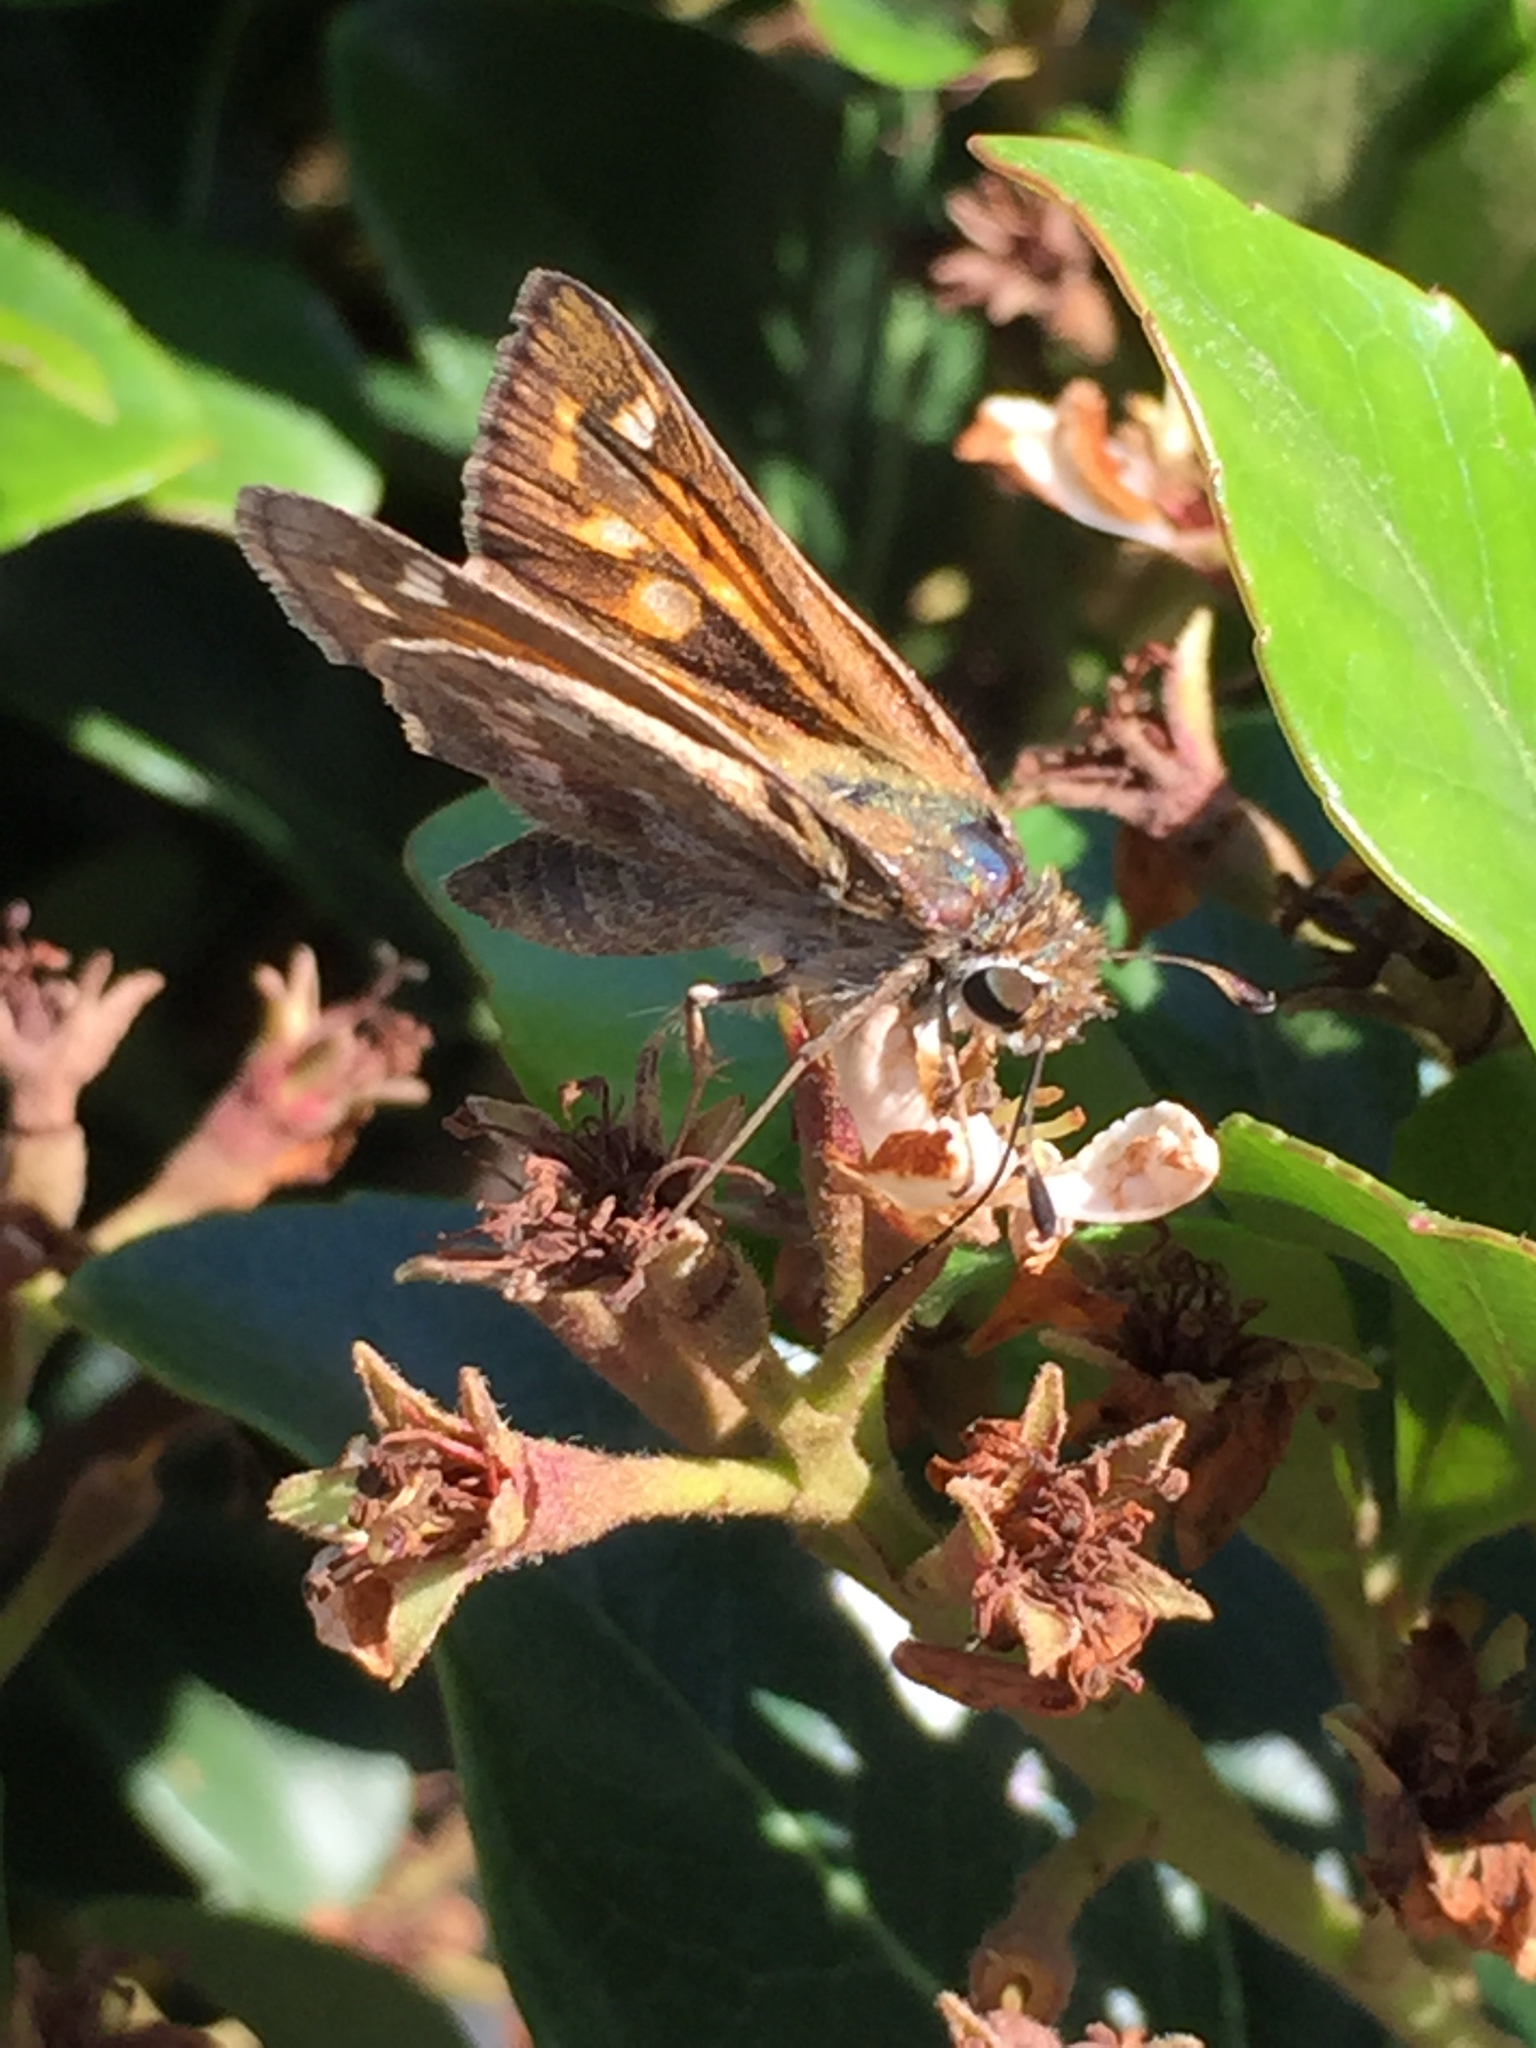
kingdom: Animalia
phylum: Arthropoda
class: Insecta
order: Lepidoptera
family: Hesperiidae
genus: Atalopedes
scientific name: Atalopedes
